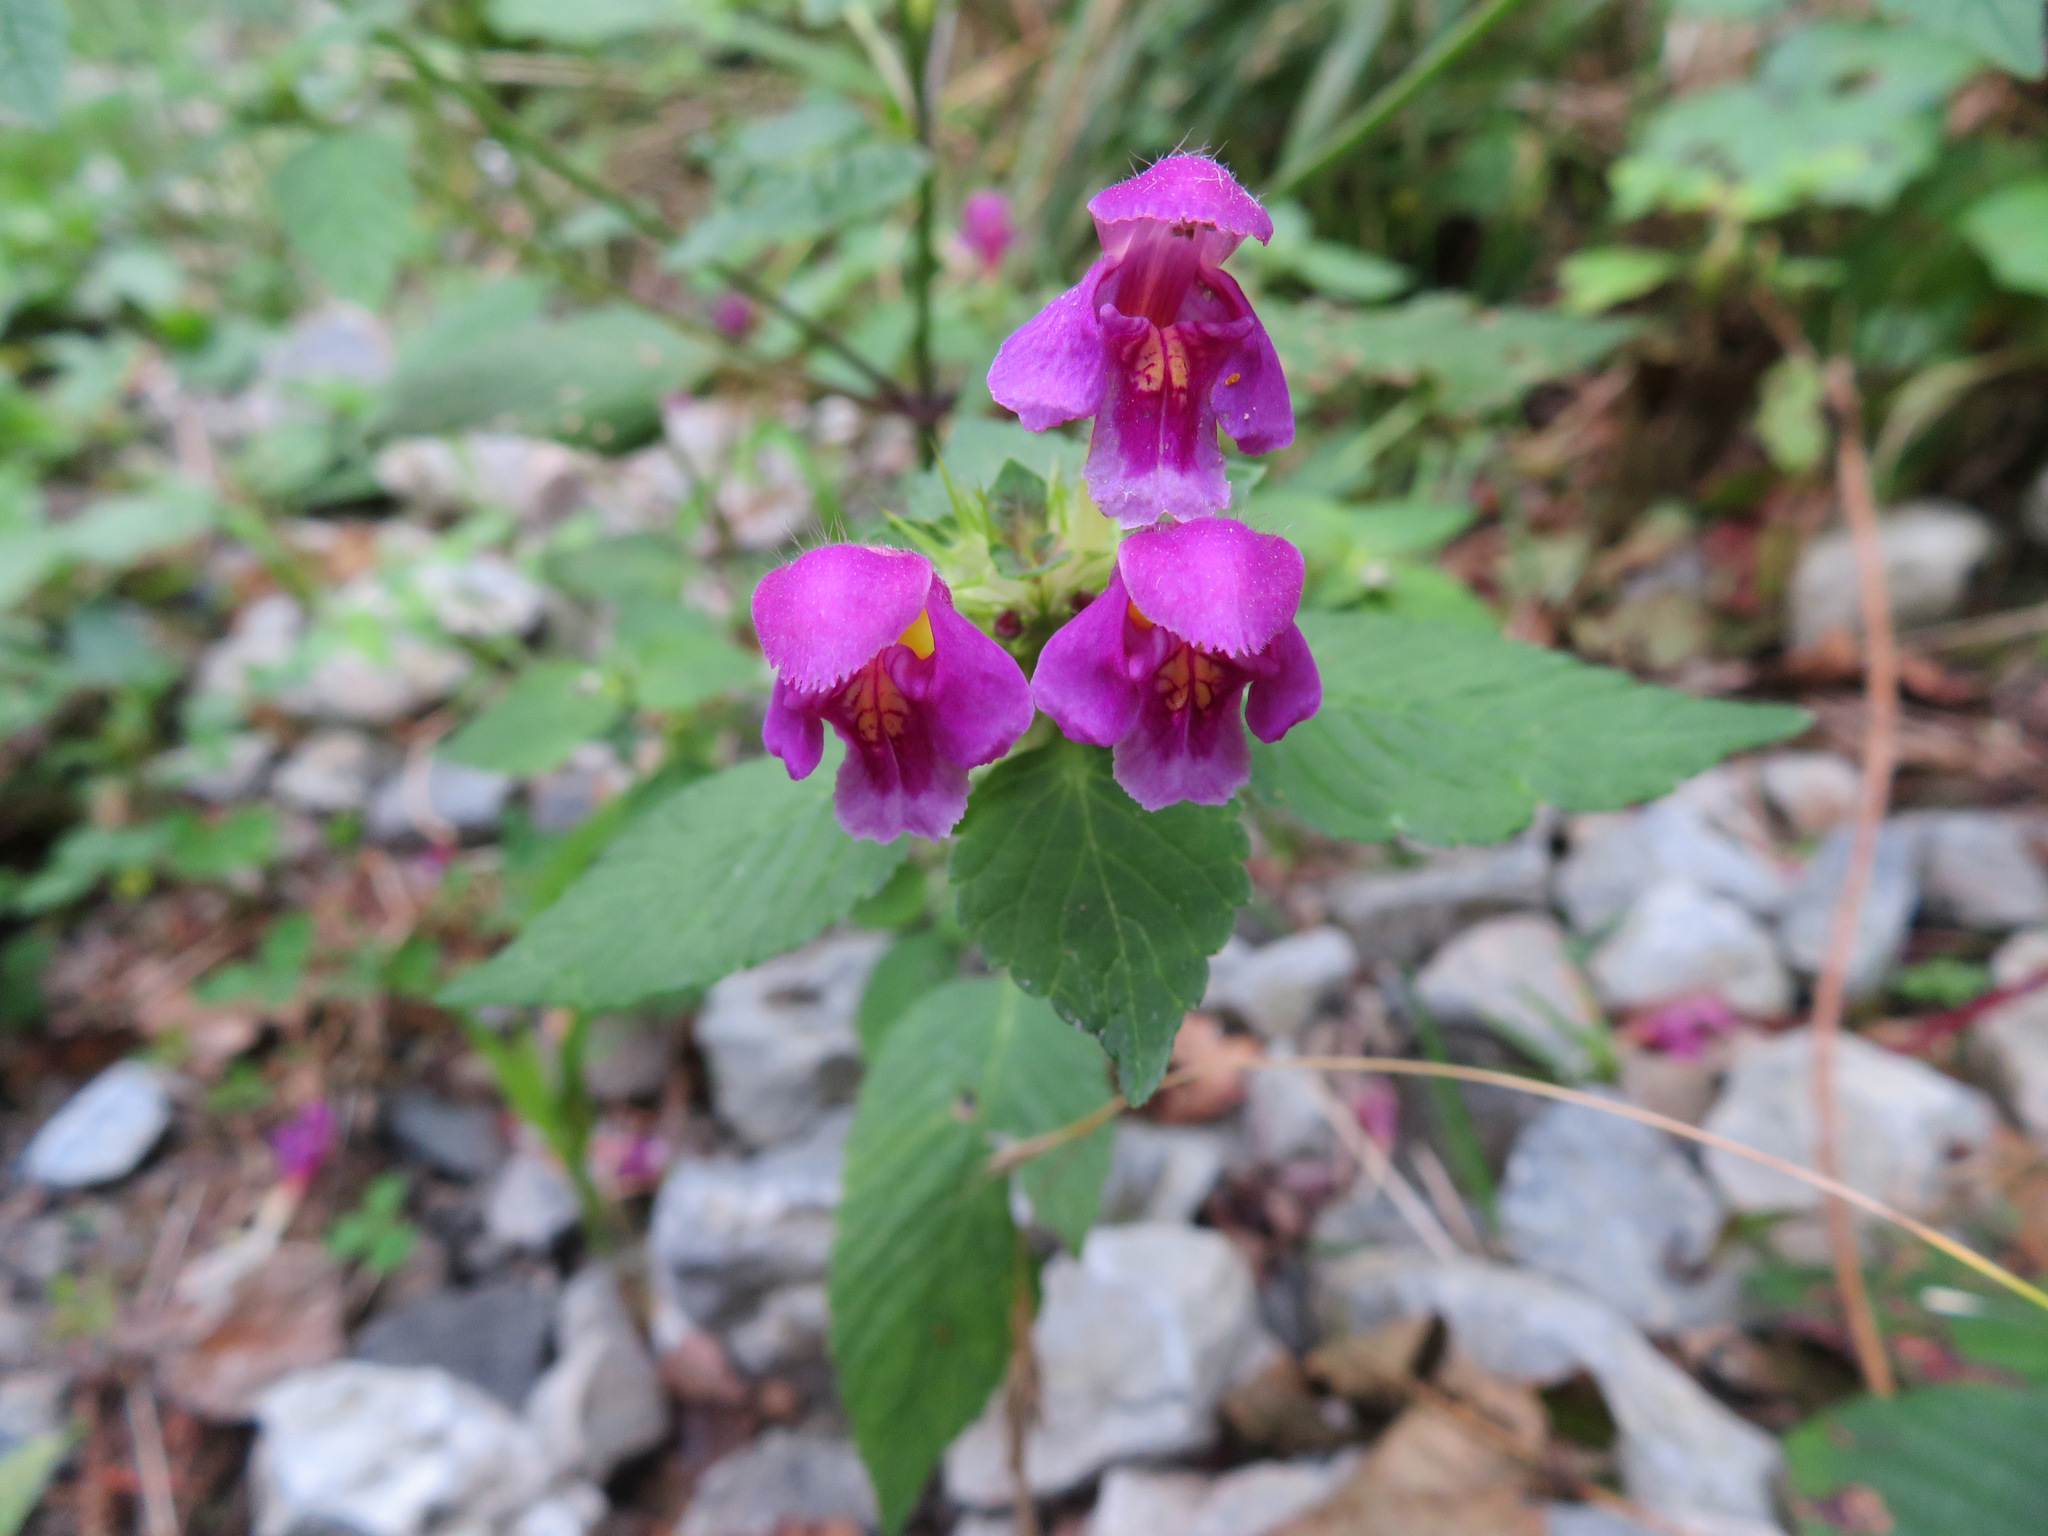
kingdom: Plantae
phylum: Tracheophyta
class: Magnoliopsida
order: Lamiales
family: Lamiaceae
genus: Galeopsis
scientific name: Galeopsis pubescens
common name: Downy hemp-nettle
